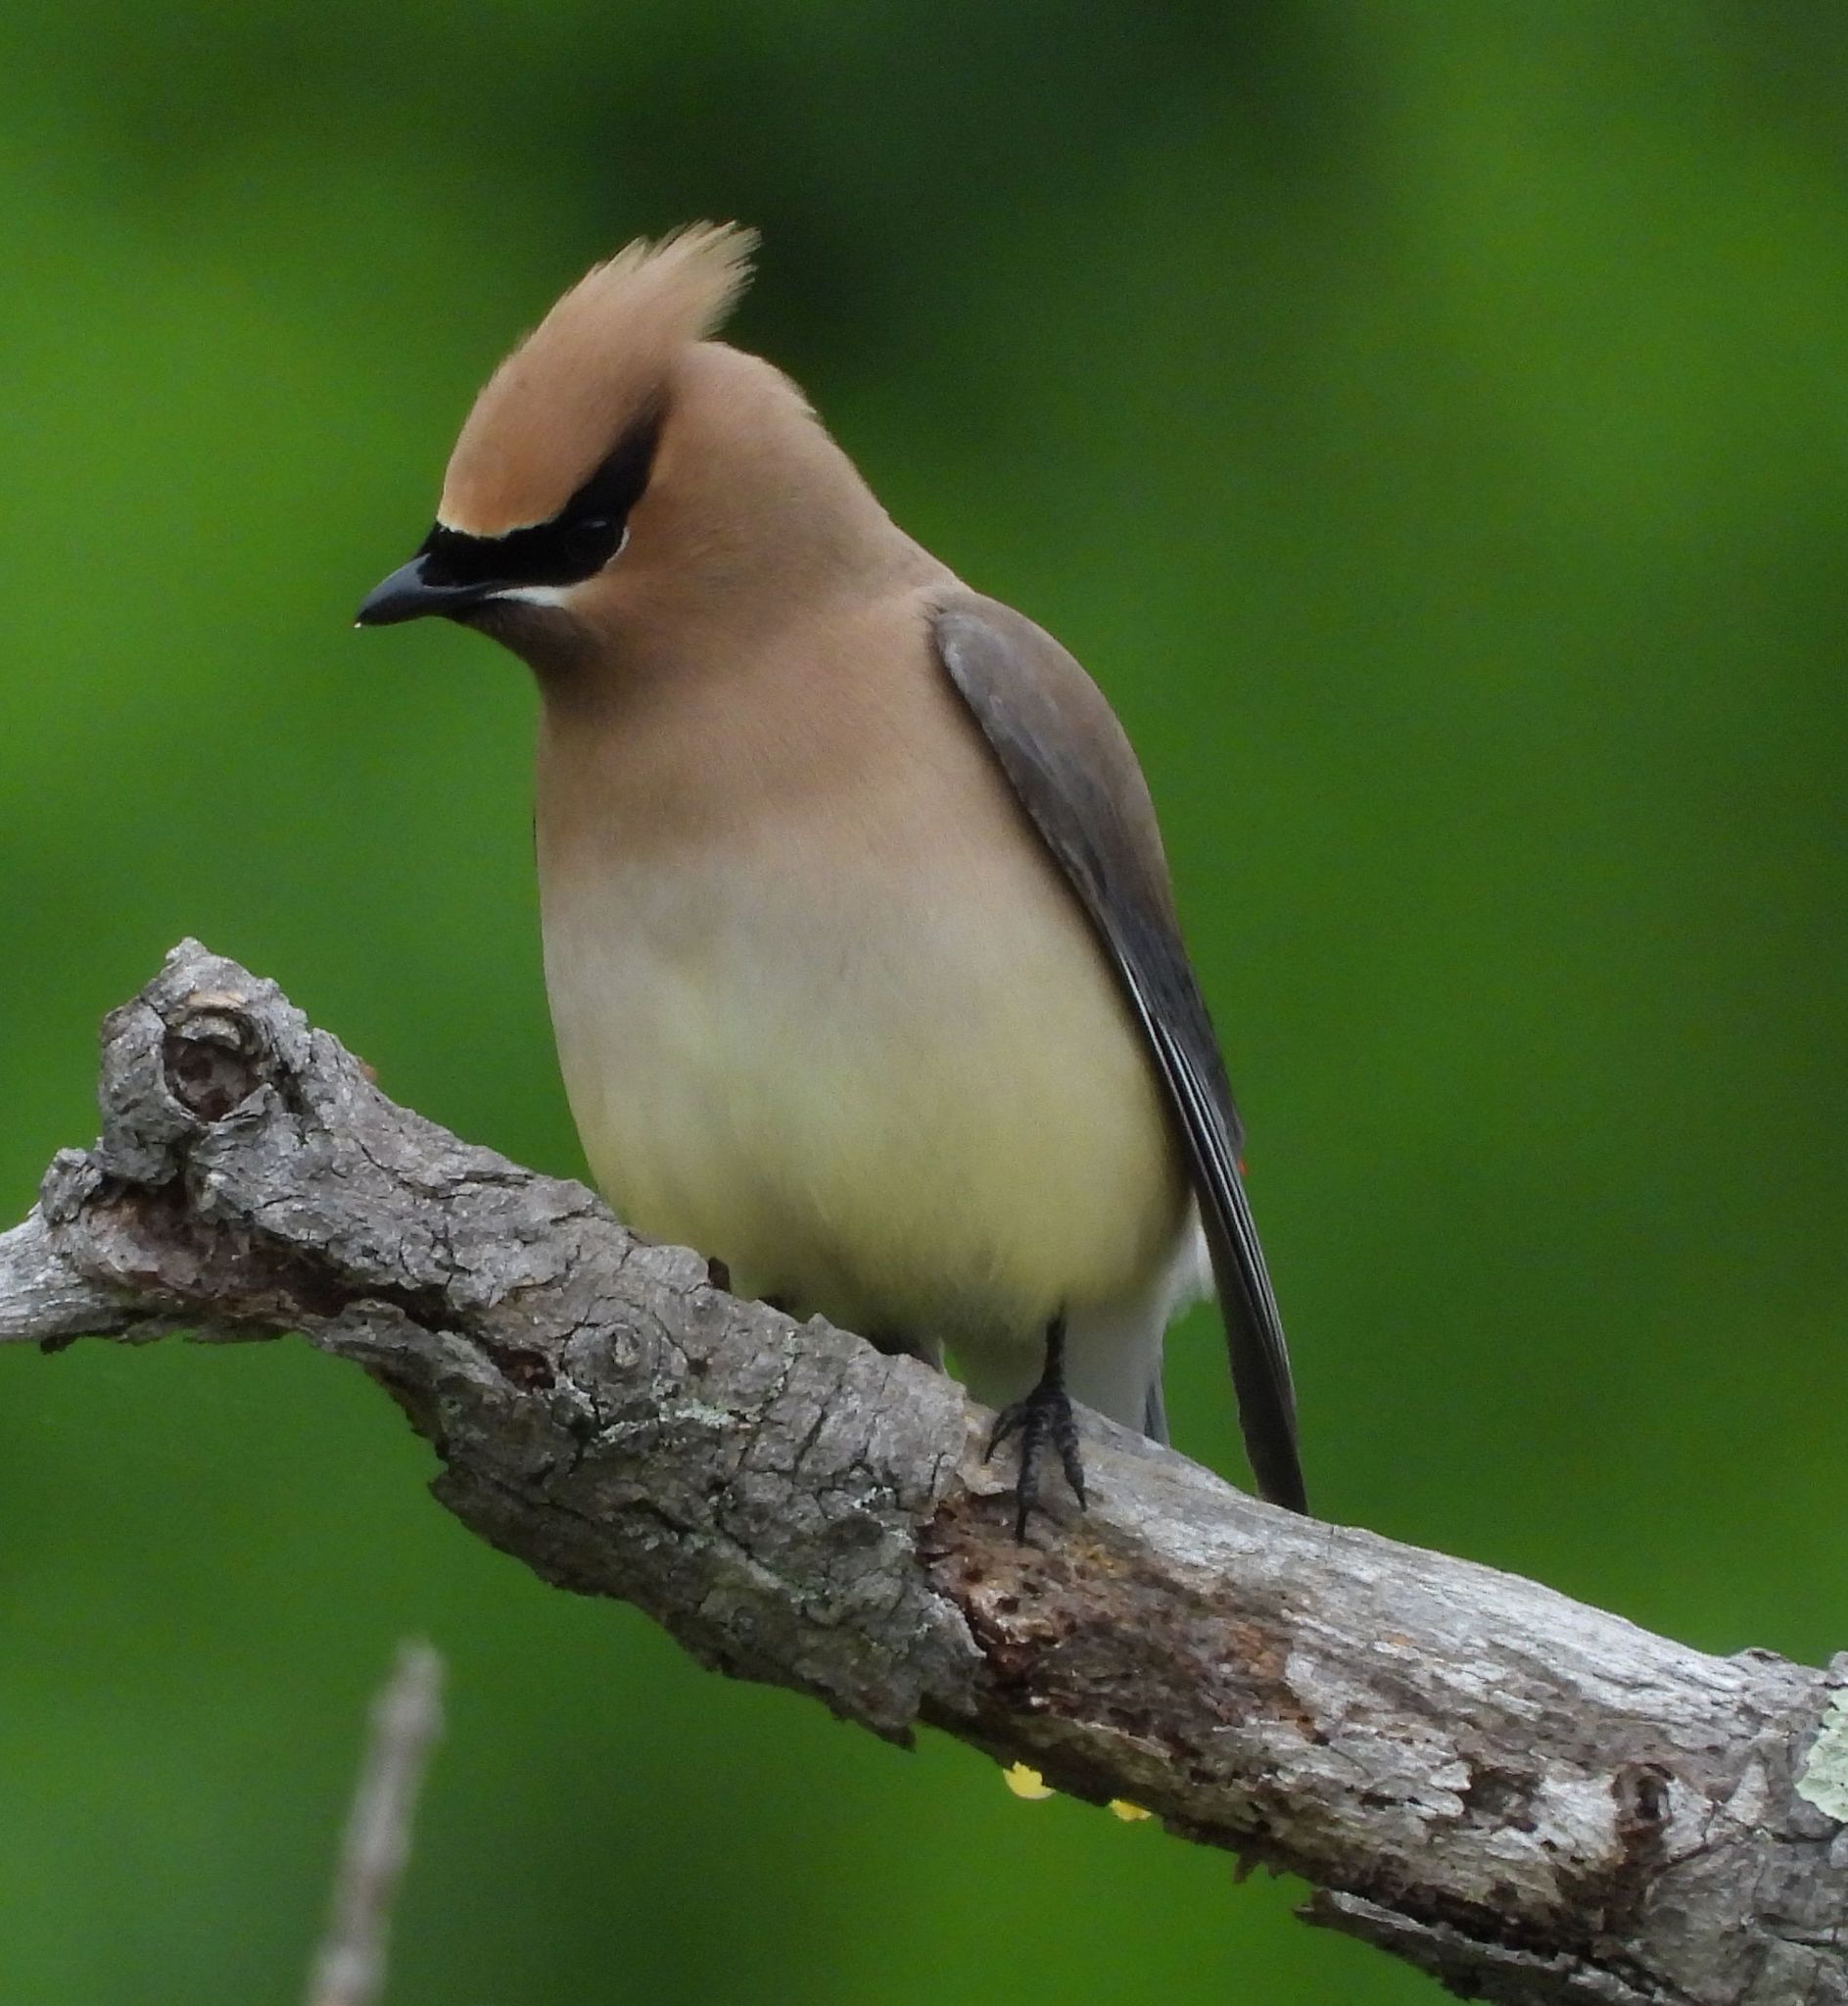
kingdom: Animalia
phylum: Chordata
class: Aves
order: Passeriformes
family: Bombycillidae
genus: Bombycilla
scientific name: Bombycilla cedrorum
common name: Cedar waxwing
